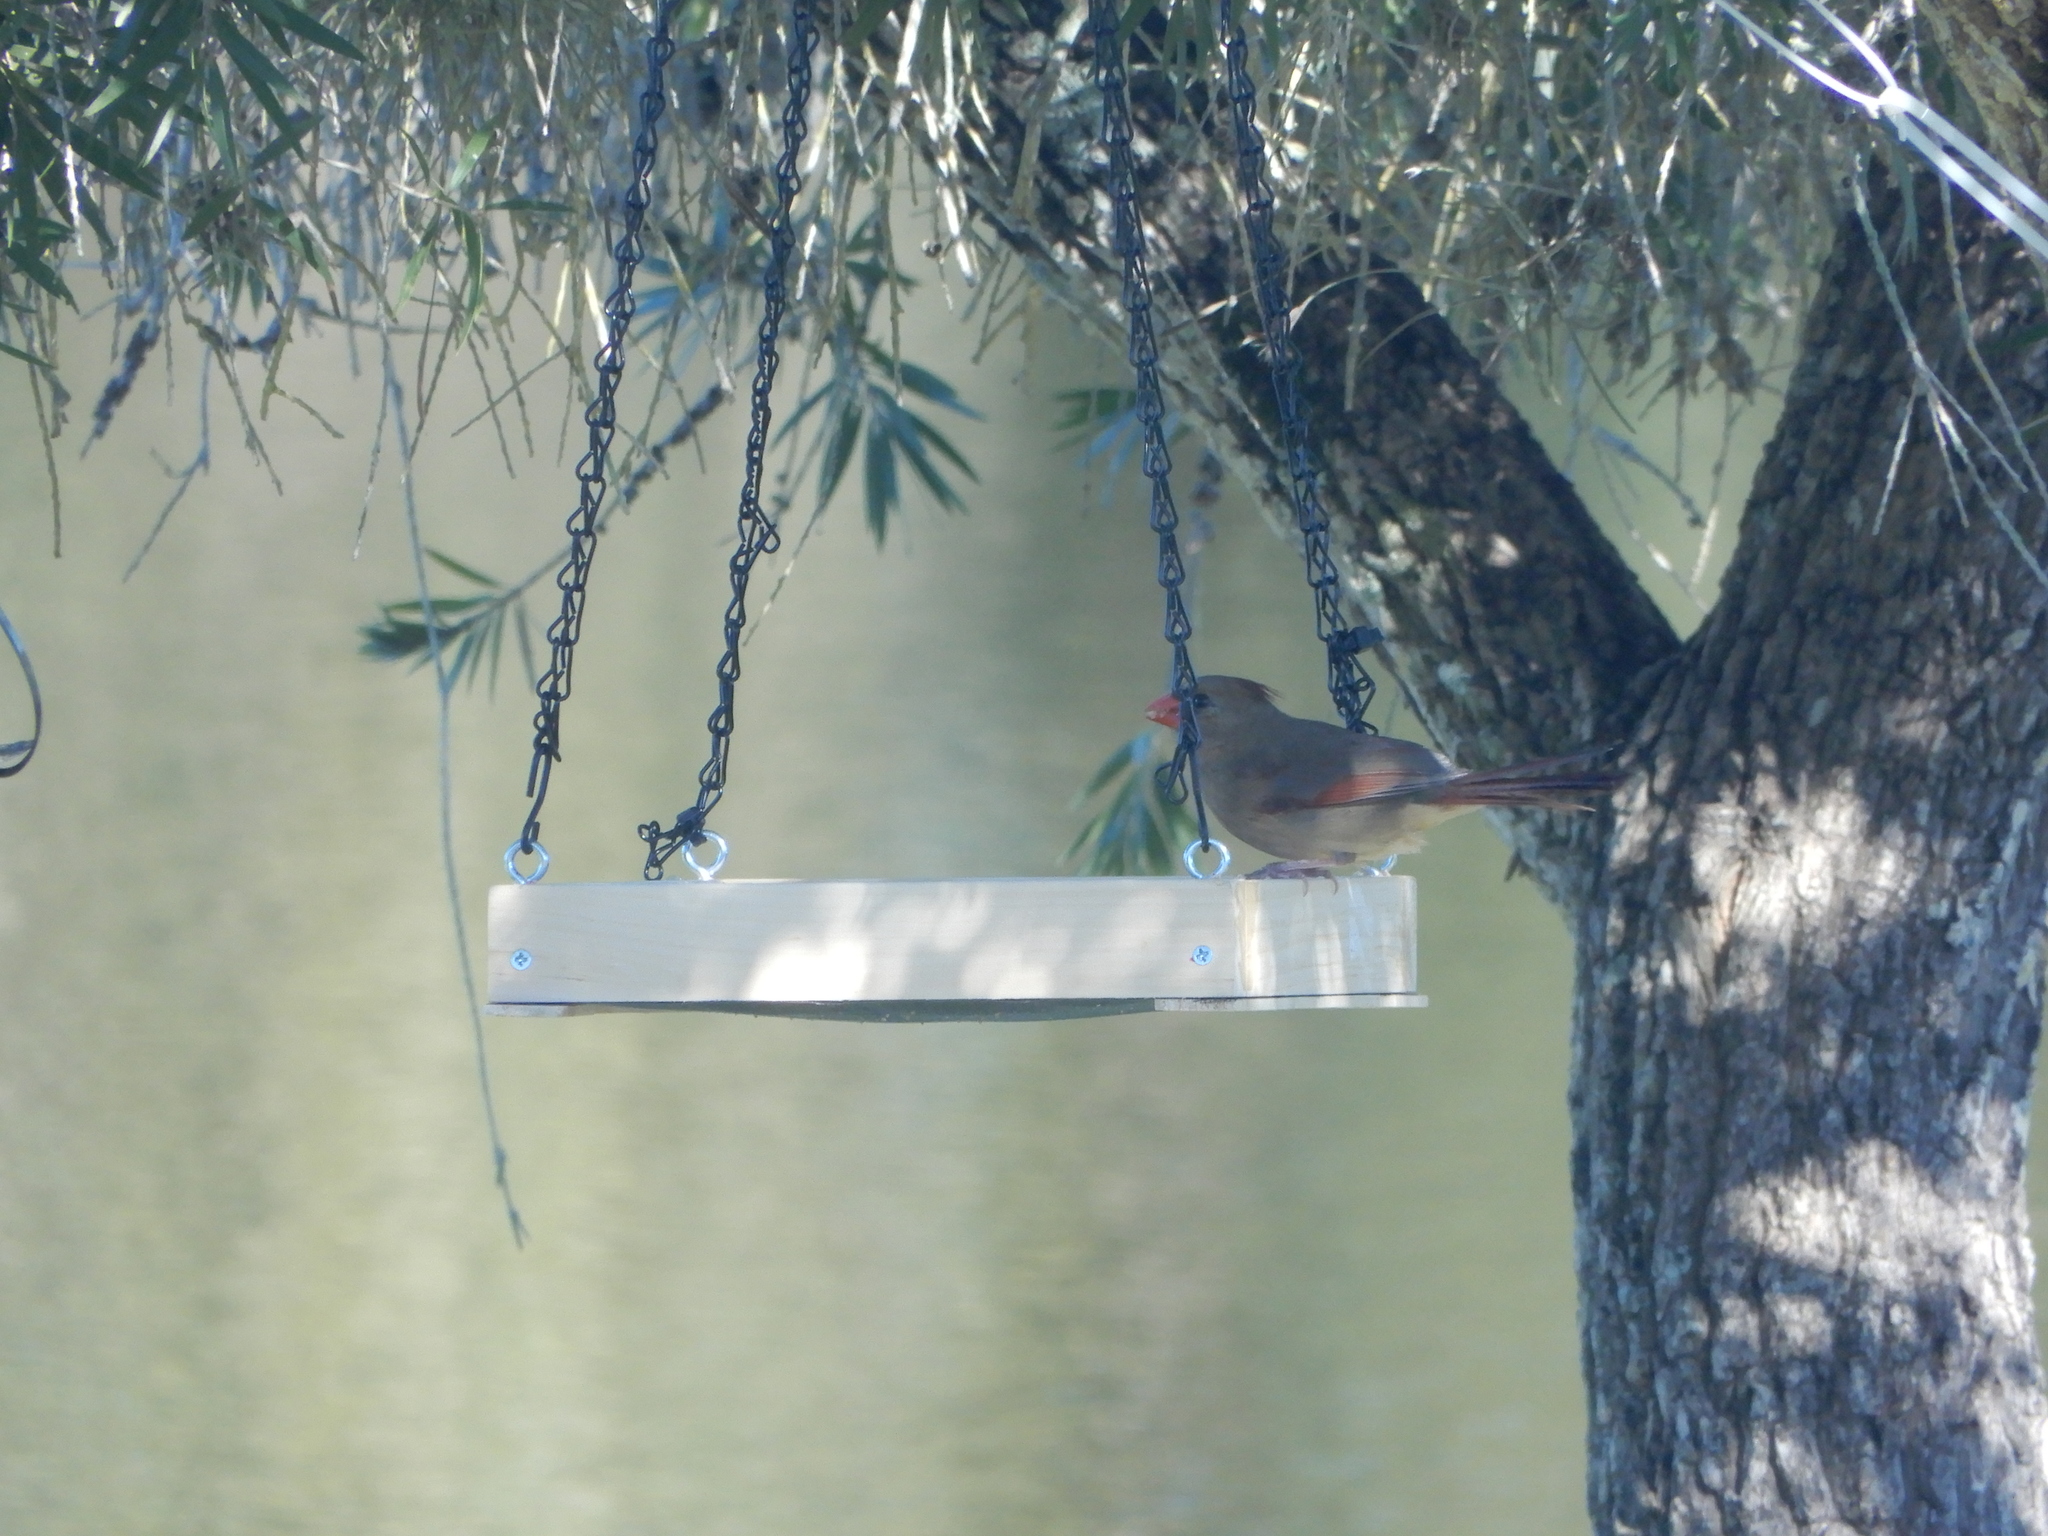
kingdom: Animalia
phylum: Chordata
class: Aves
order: Passeriformes
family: Cardinalidae
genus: Cardinalis
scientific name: Cardinalis cardinalis
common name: Northern cardinal
